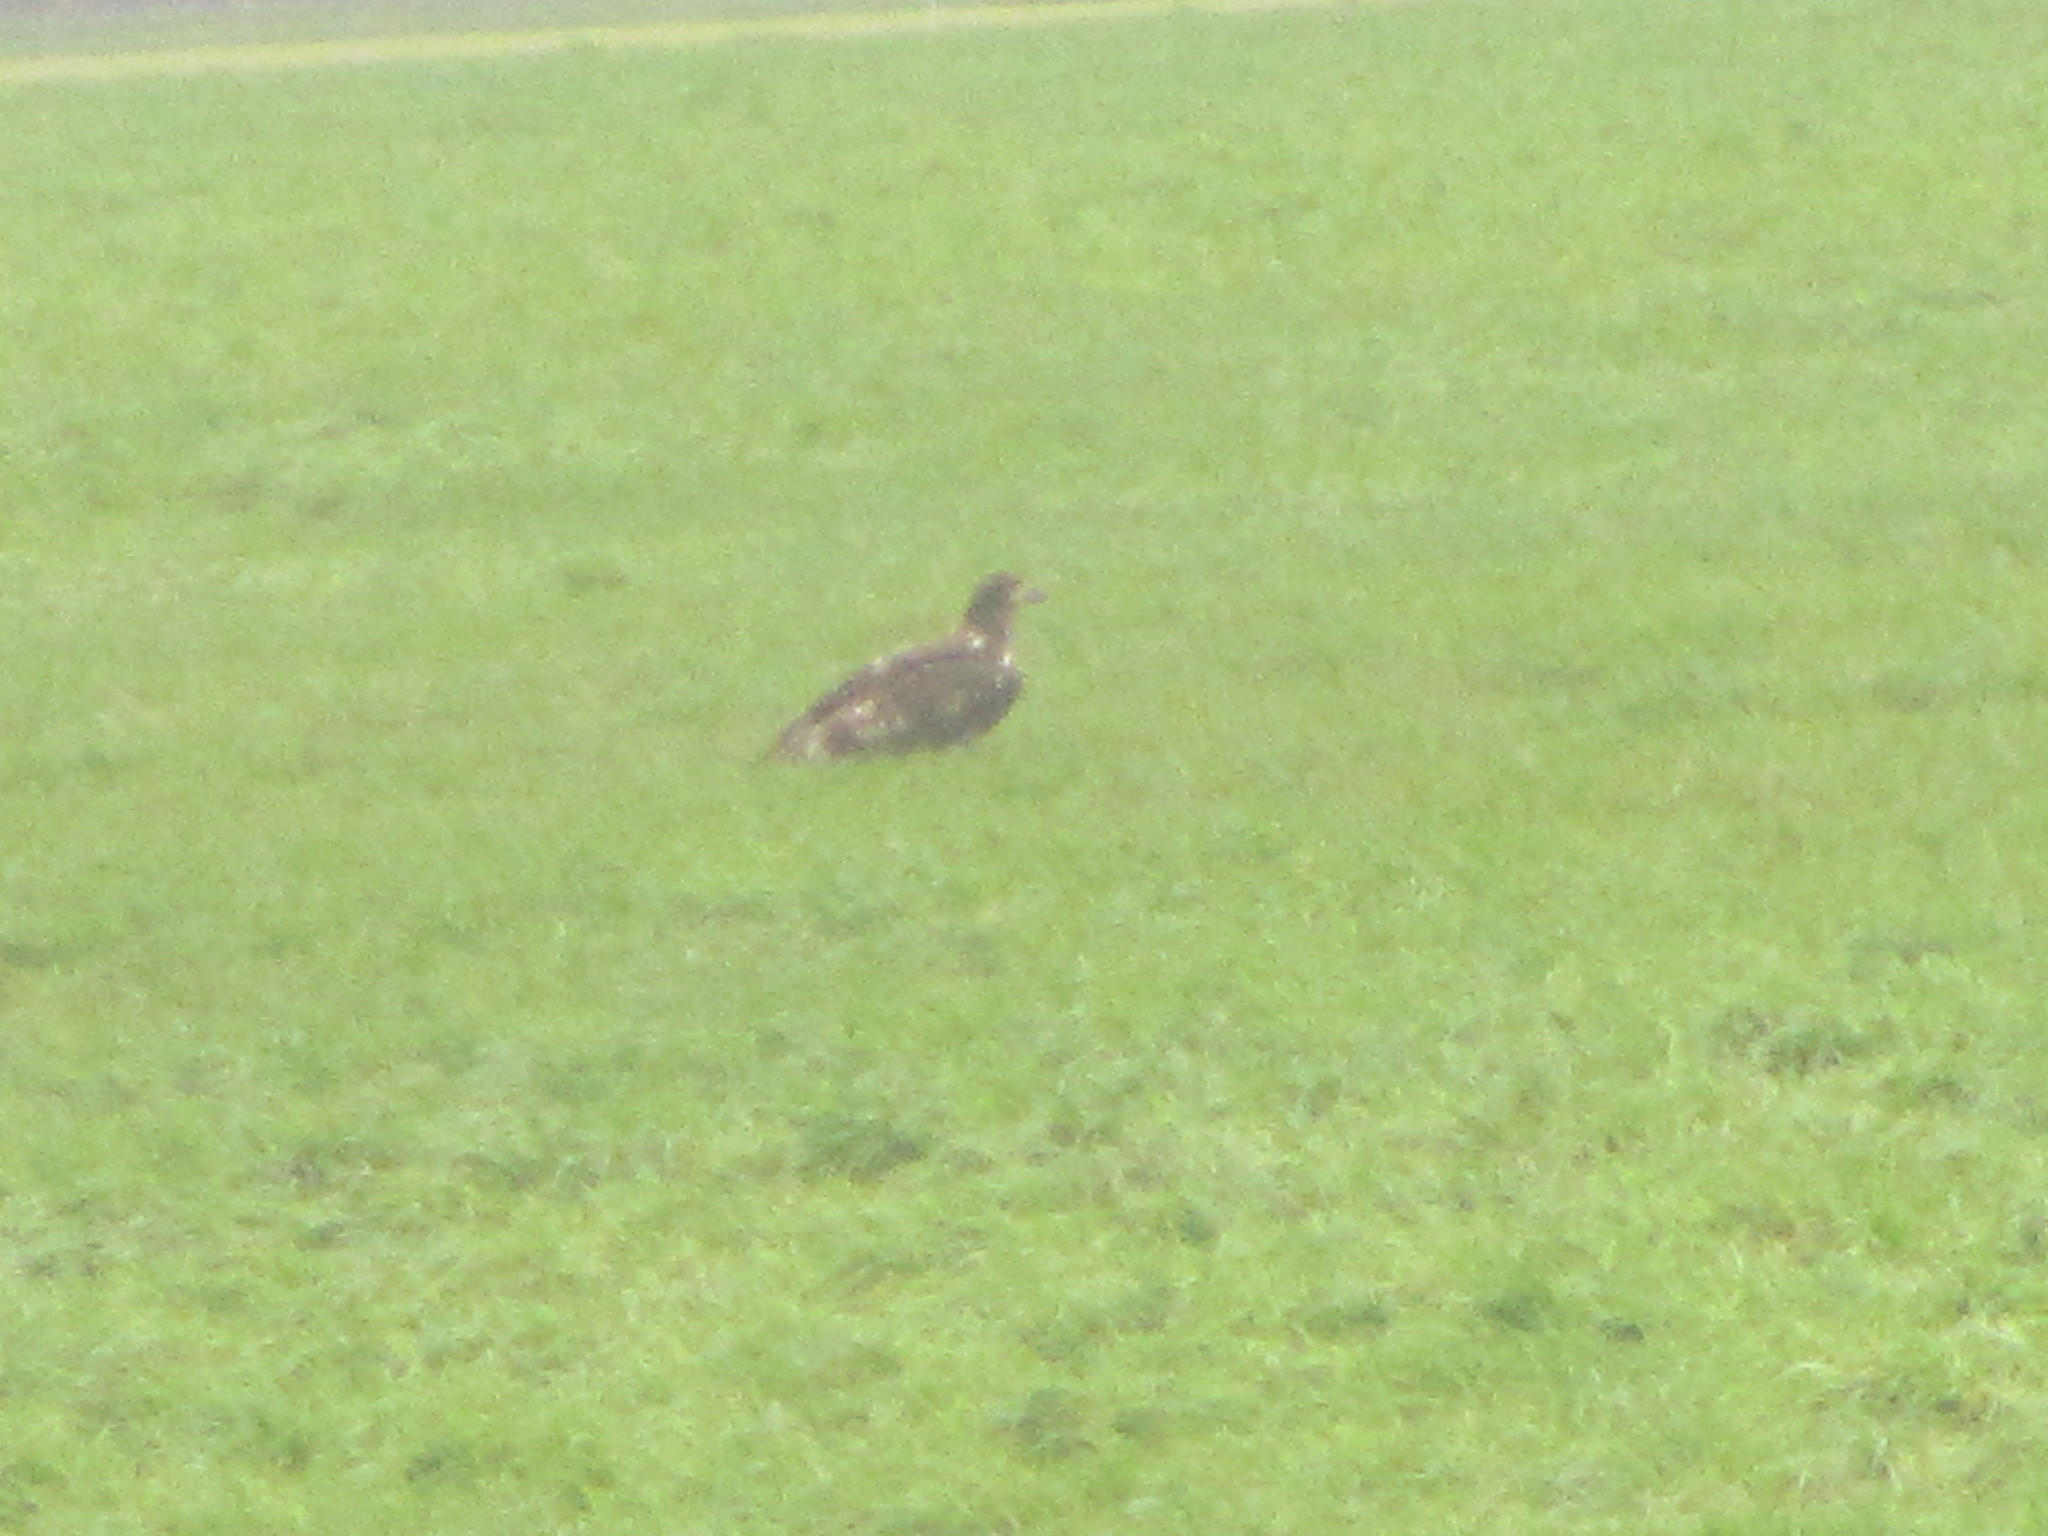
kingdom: Animalia
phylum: Chordata
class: Aves
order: Accipitriformes
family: Accipitridae
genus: Haliaeetus
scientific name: Haliaeetus leucocephalus
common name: Bald eagle
